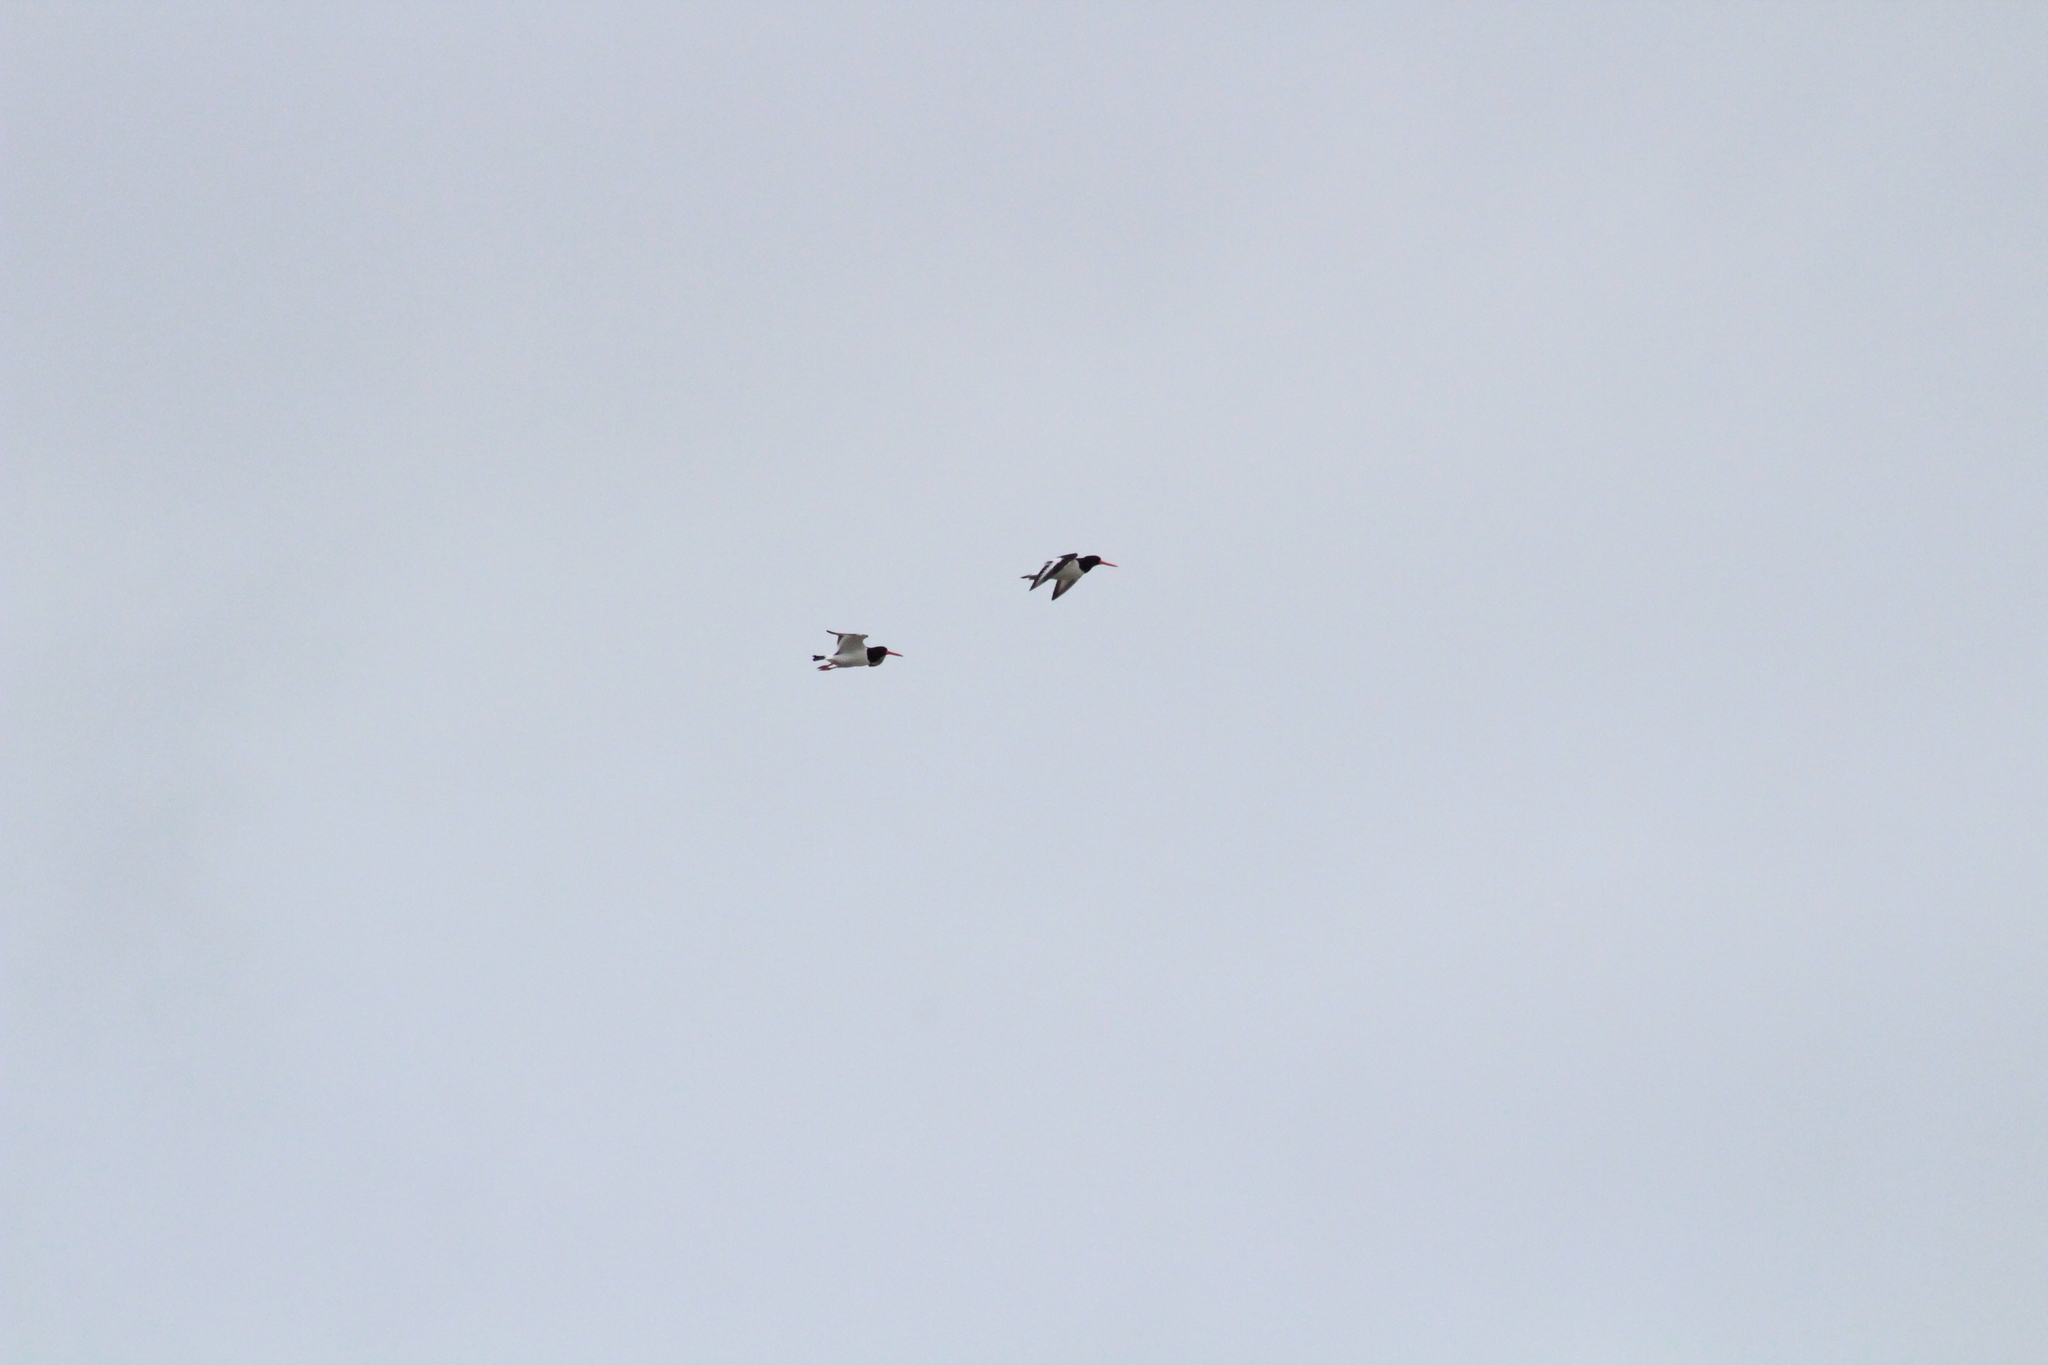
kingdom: Animalia
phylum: Chordata
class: Aves
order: Charadriiformes
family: Haematopodidae
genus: Haematopus
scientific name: Haematopus ostralegus
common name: Eurasian oystercatcher
